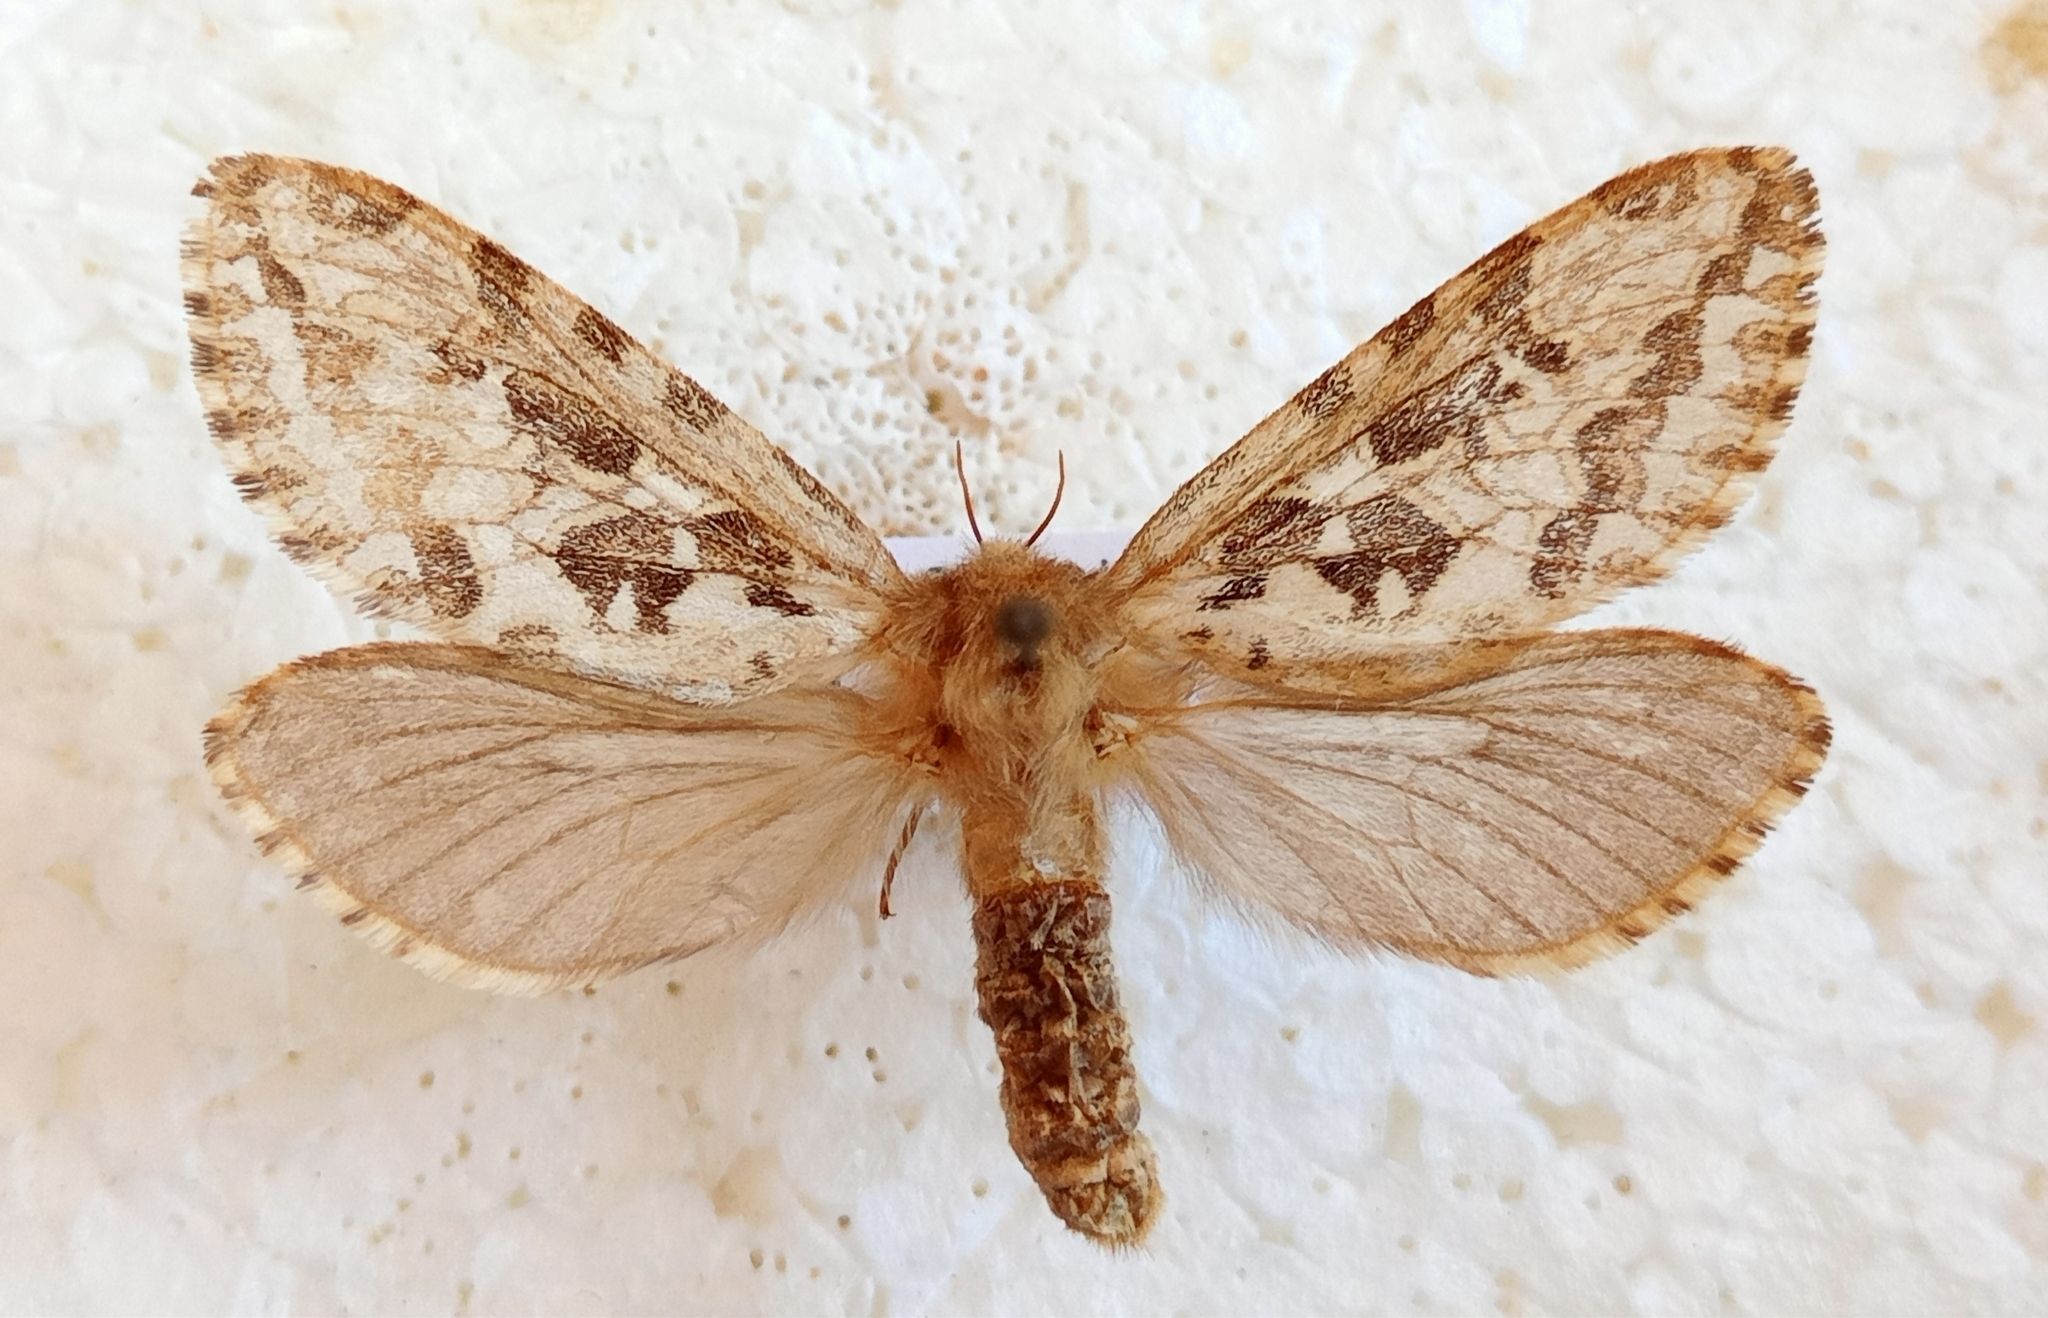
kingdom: Animalia
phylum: Arthropoda
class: Insecta
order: Lepidoptera
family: Hepialidae
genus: Korscheltellus
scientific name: Korscheltellus fusconebulosus
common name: Map-winged swift
